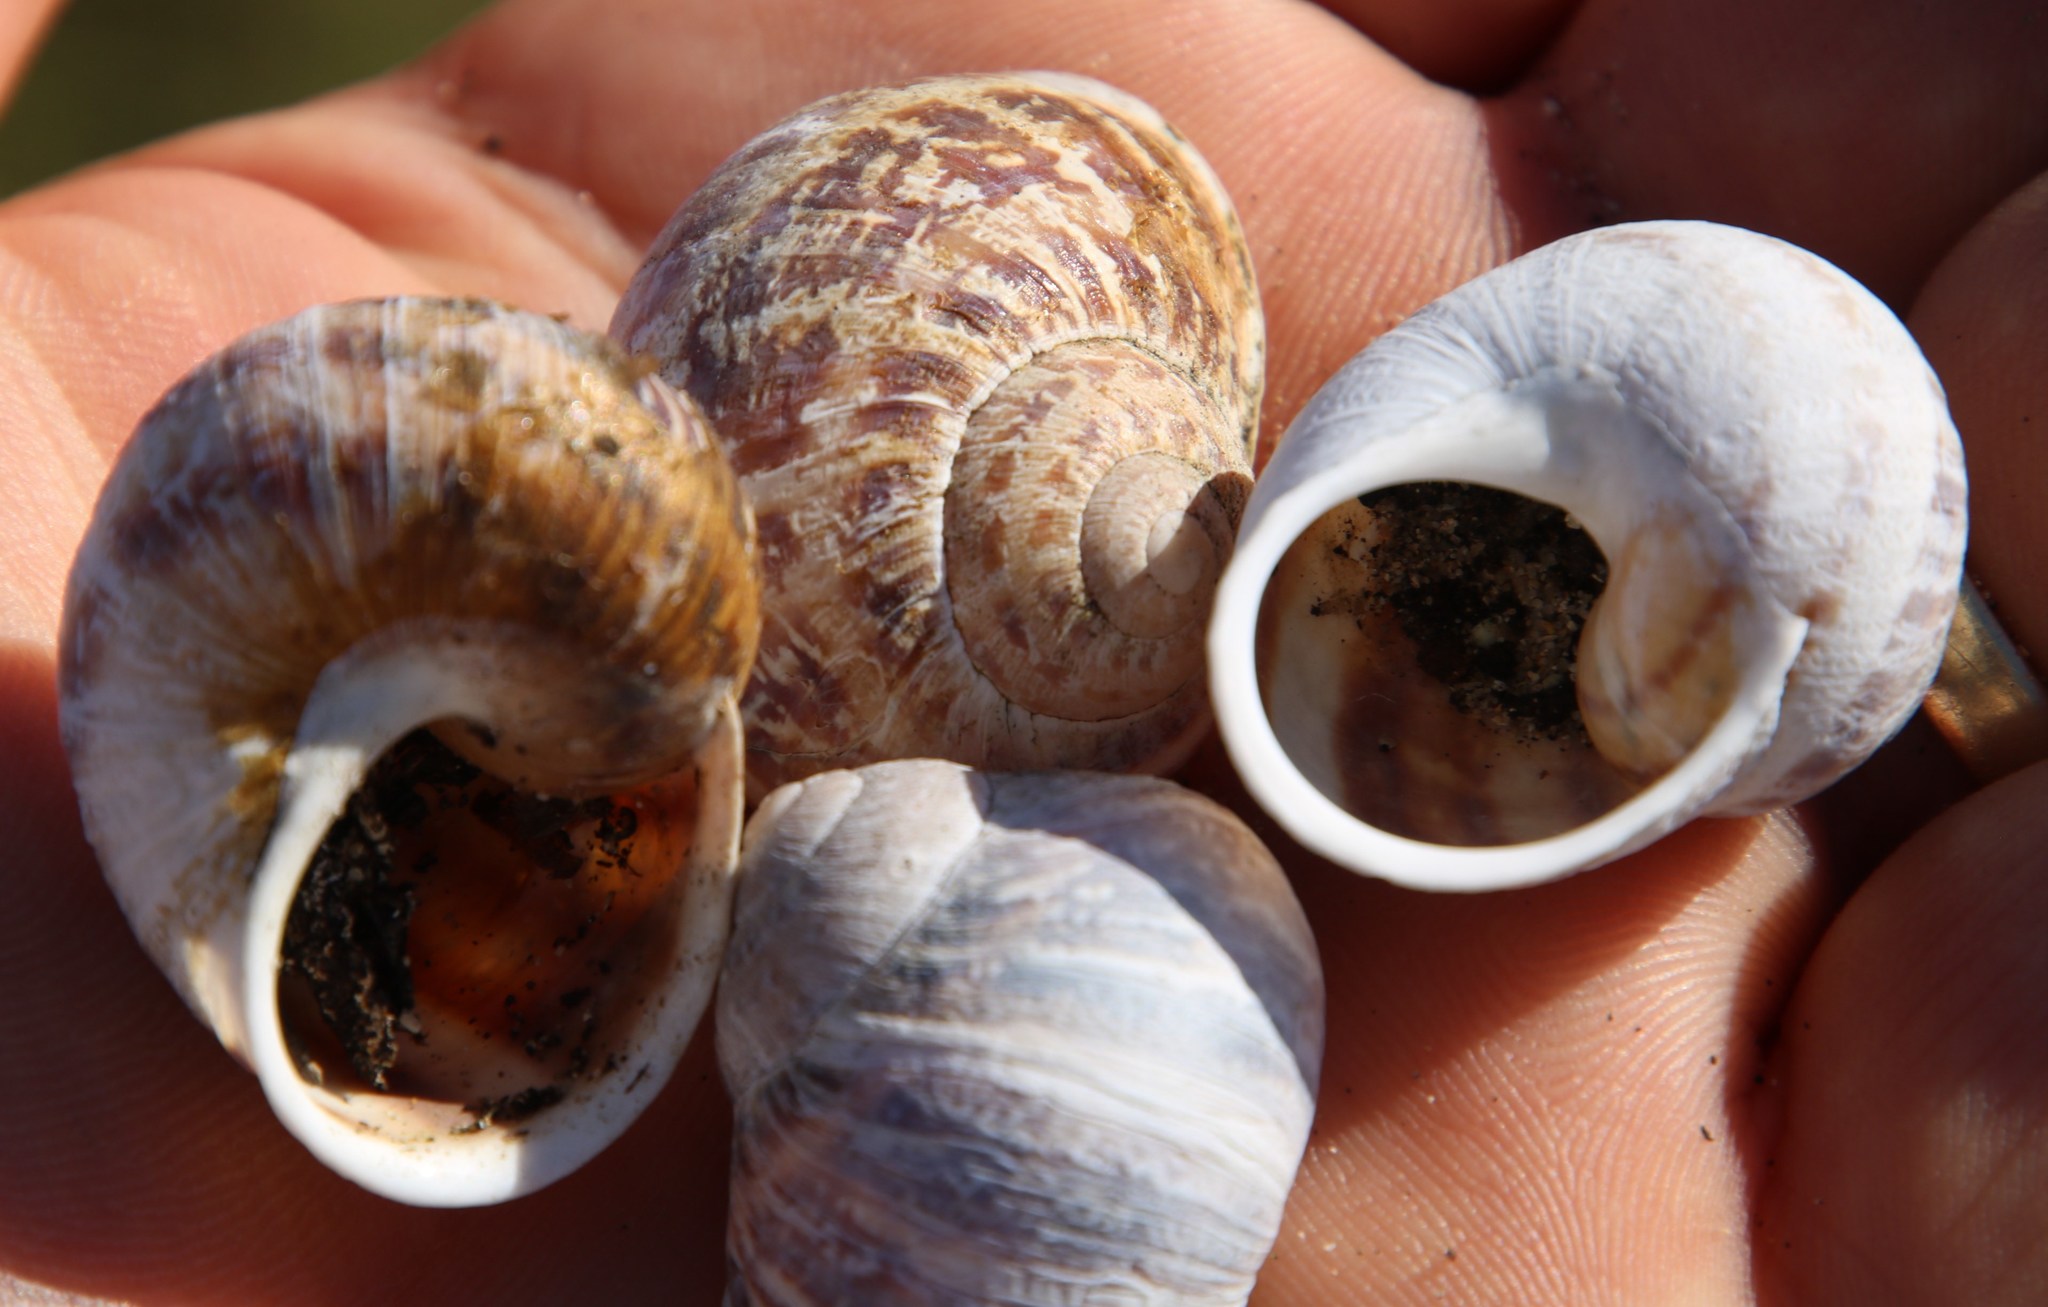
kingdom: Animalia
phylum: Mollusca
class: Gastropoda
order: Stylommatophora
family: Helicidae
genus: Cornu
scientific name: Cornu aspersum
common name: Brown garden snail
